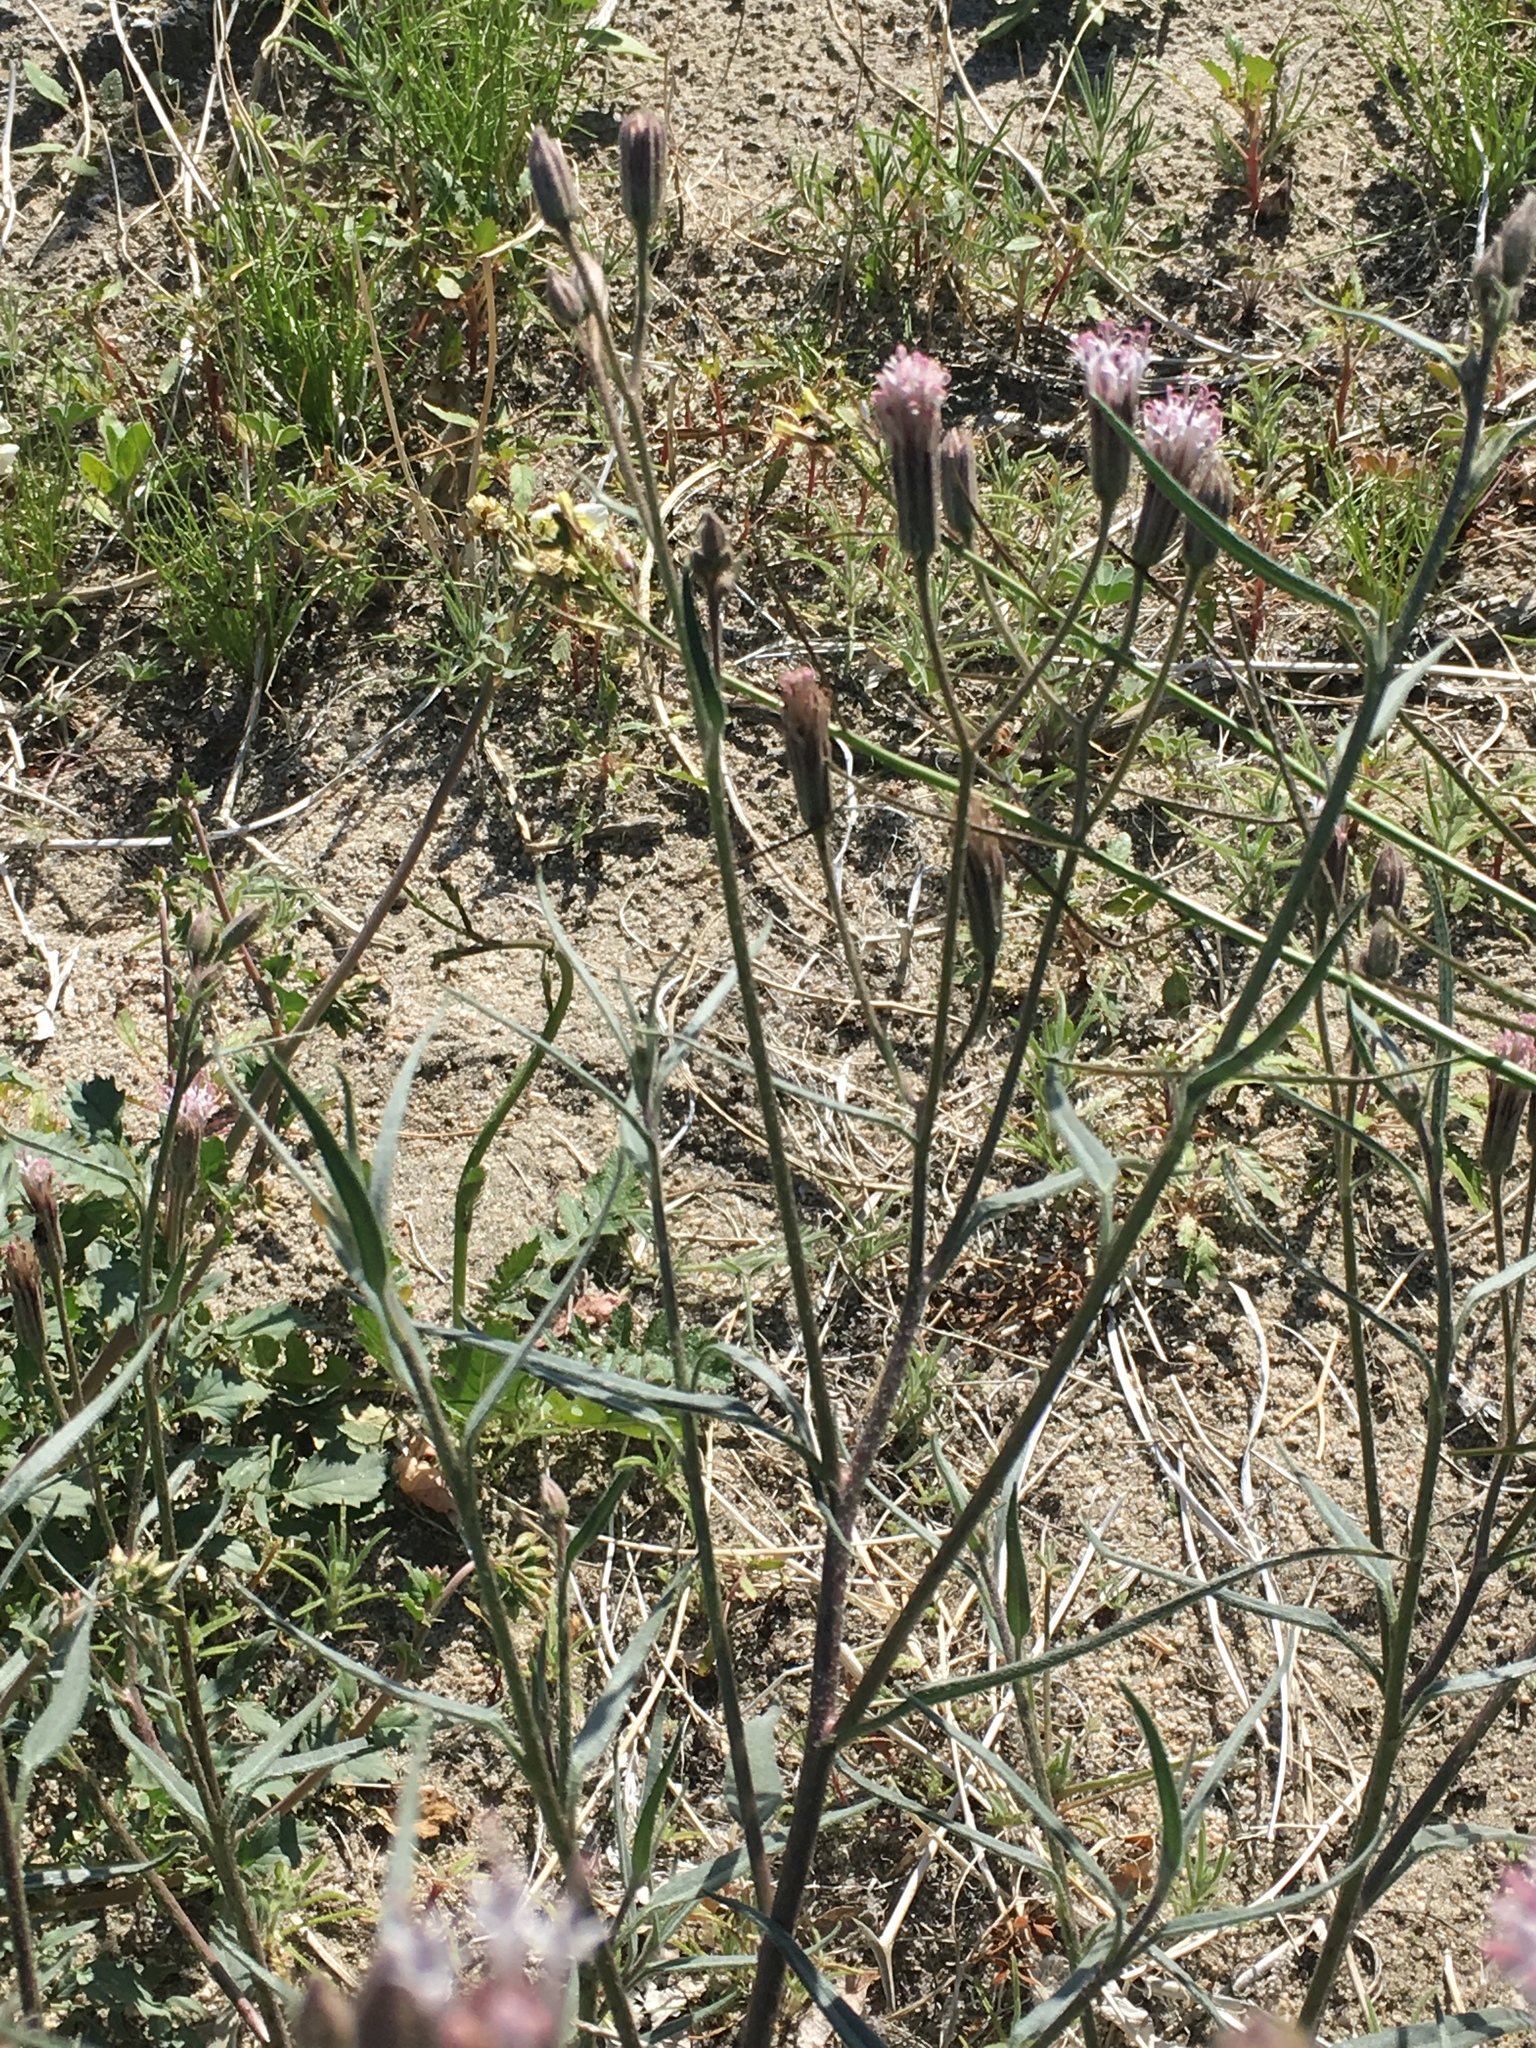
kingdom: Plantae
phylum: Tracheophyta
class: Magnoliopsida
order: Asterales
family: Asteraceae
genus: Palafoxia
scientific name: Palafoxia arida
